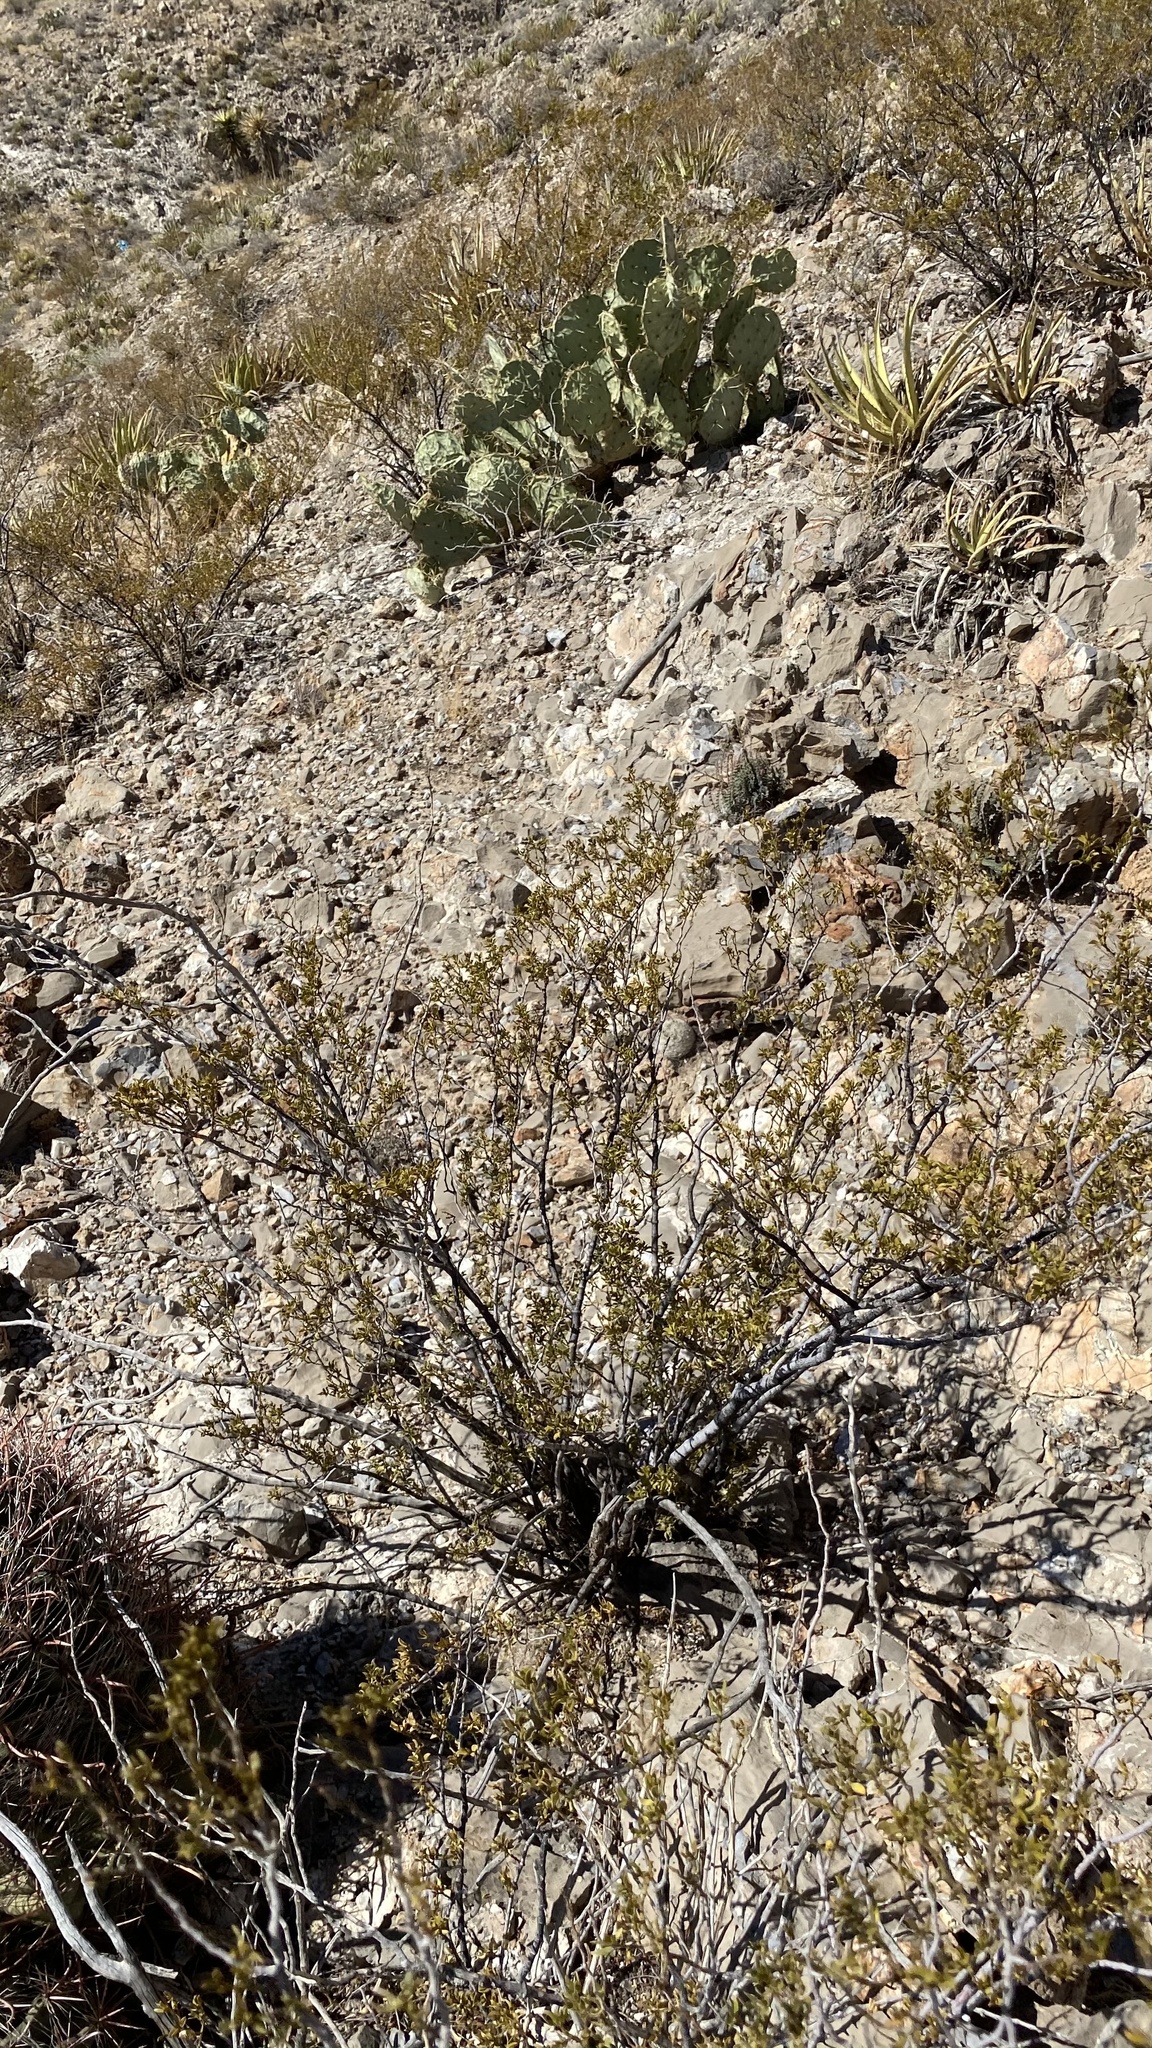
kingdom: Plantae
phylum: Tracheophyta
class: Magnoliopsida
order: Zygophyllales
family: Zygophyllaceae
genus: Larrea
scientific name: Larrea tridentata
